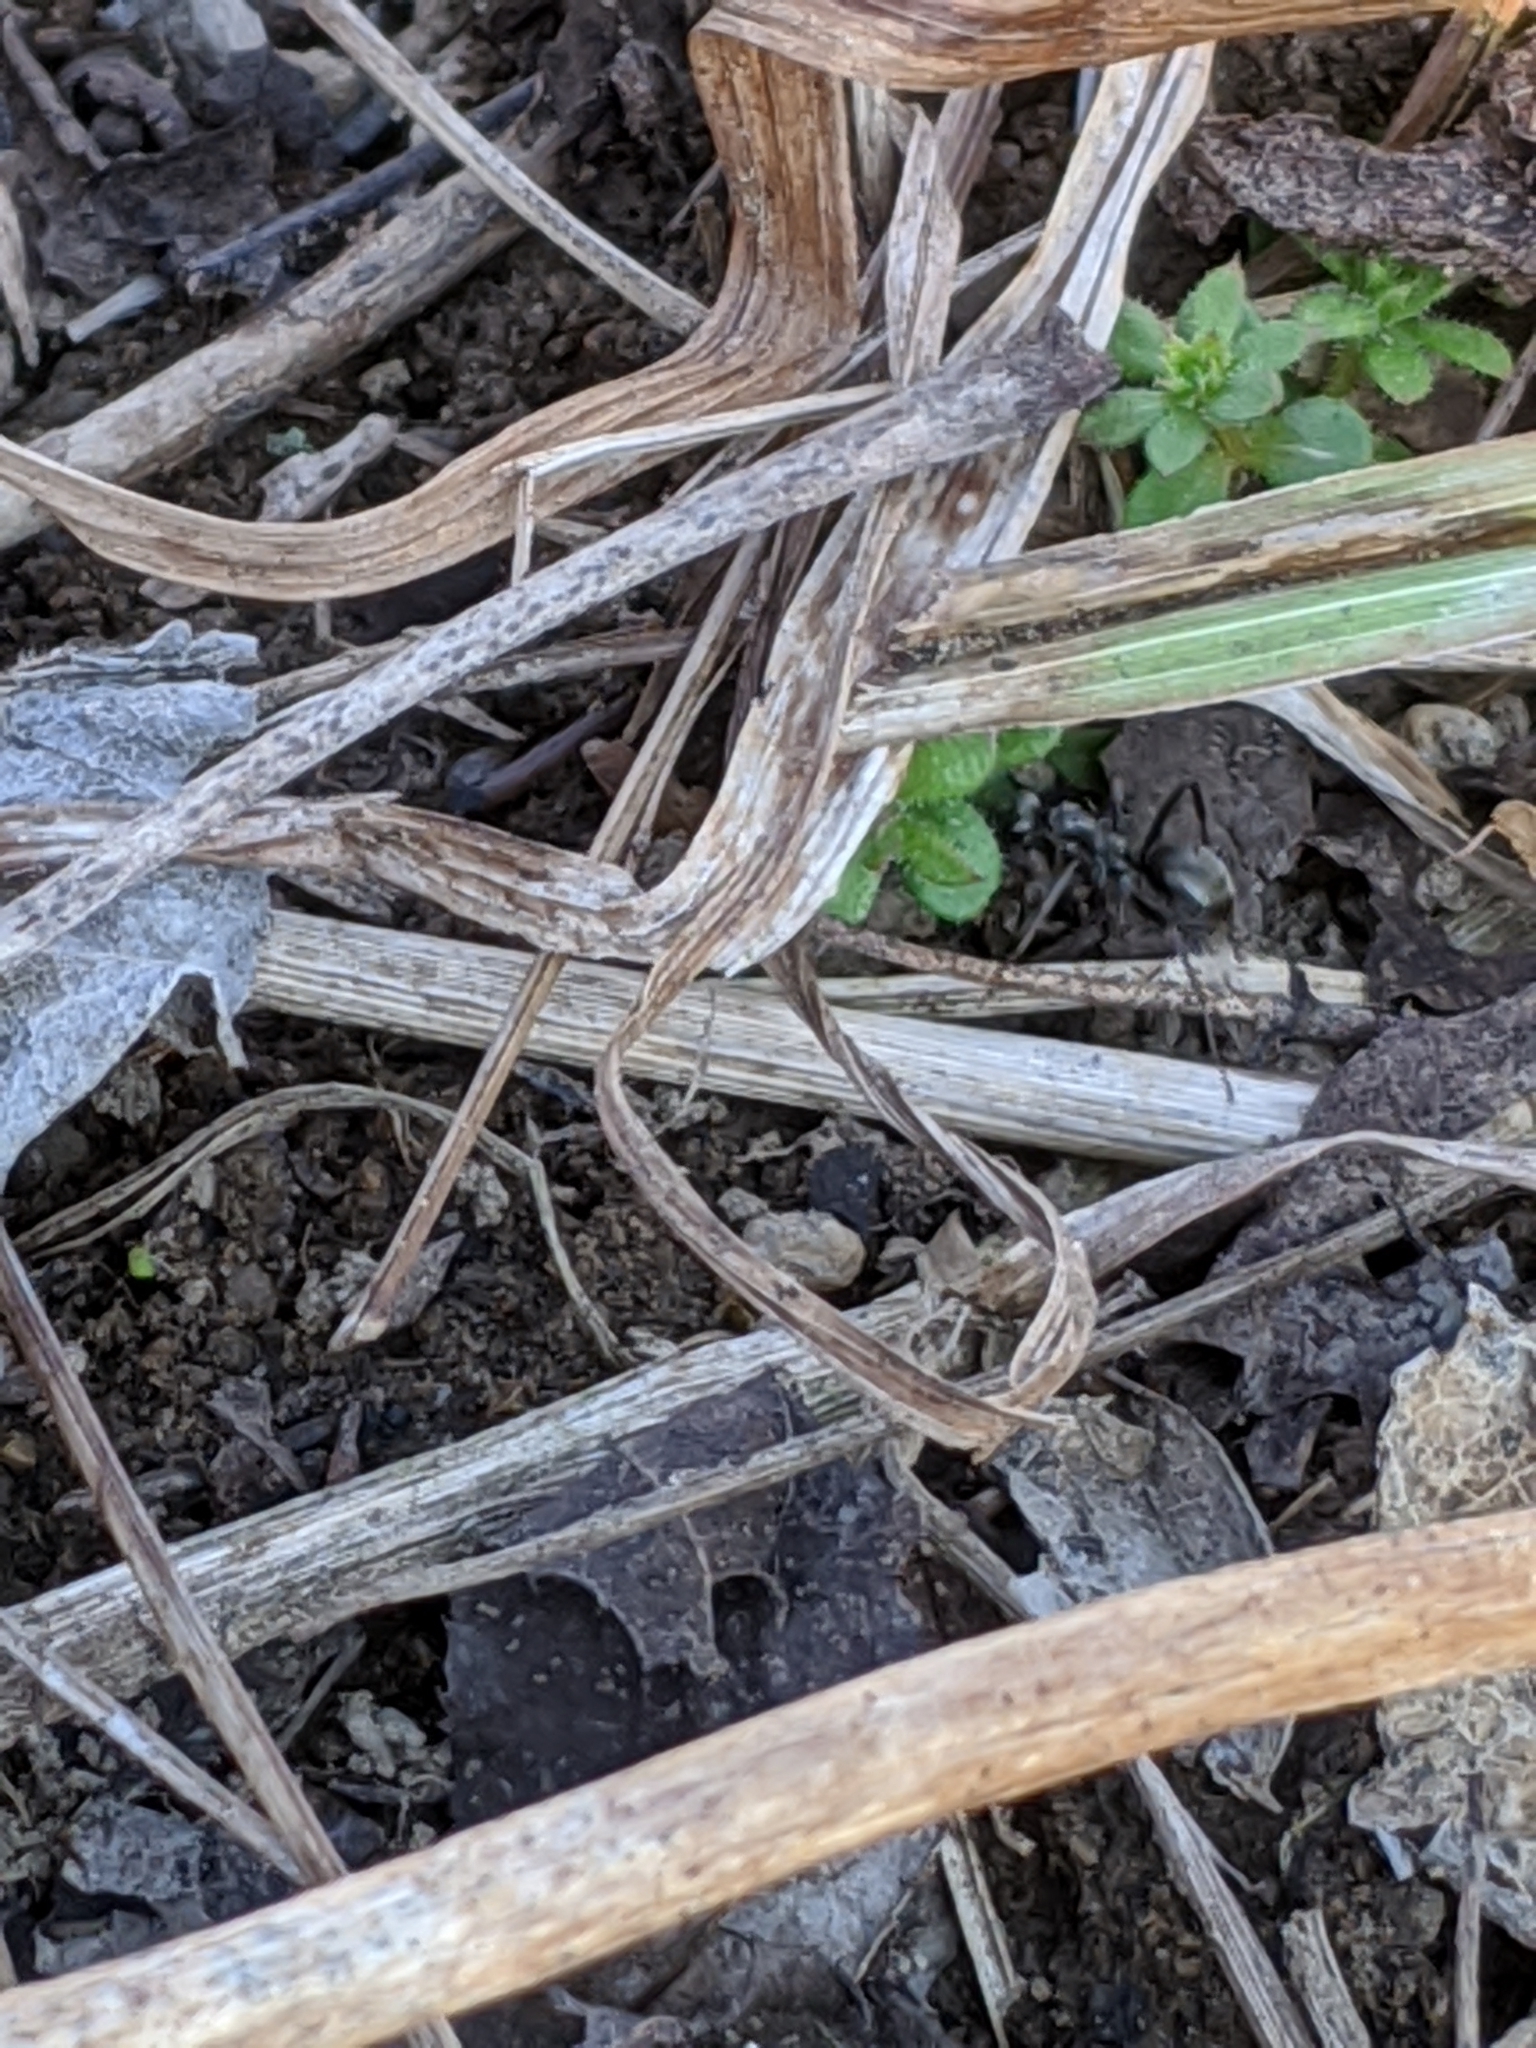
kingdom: Animalia
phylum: Arthropoda
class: Insecta
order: Hymenoptera
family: Formicidae
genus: Formica
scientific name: Formica
